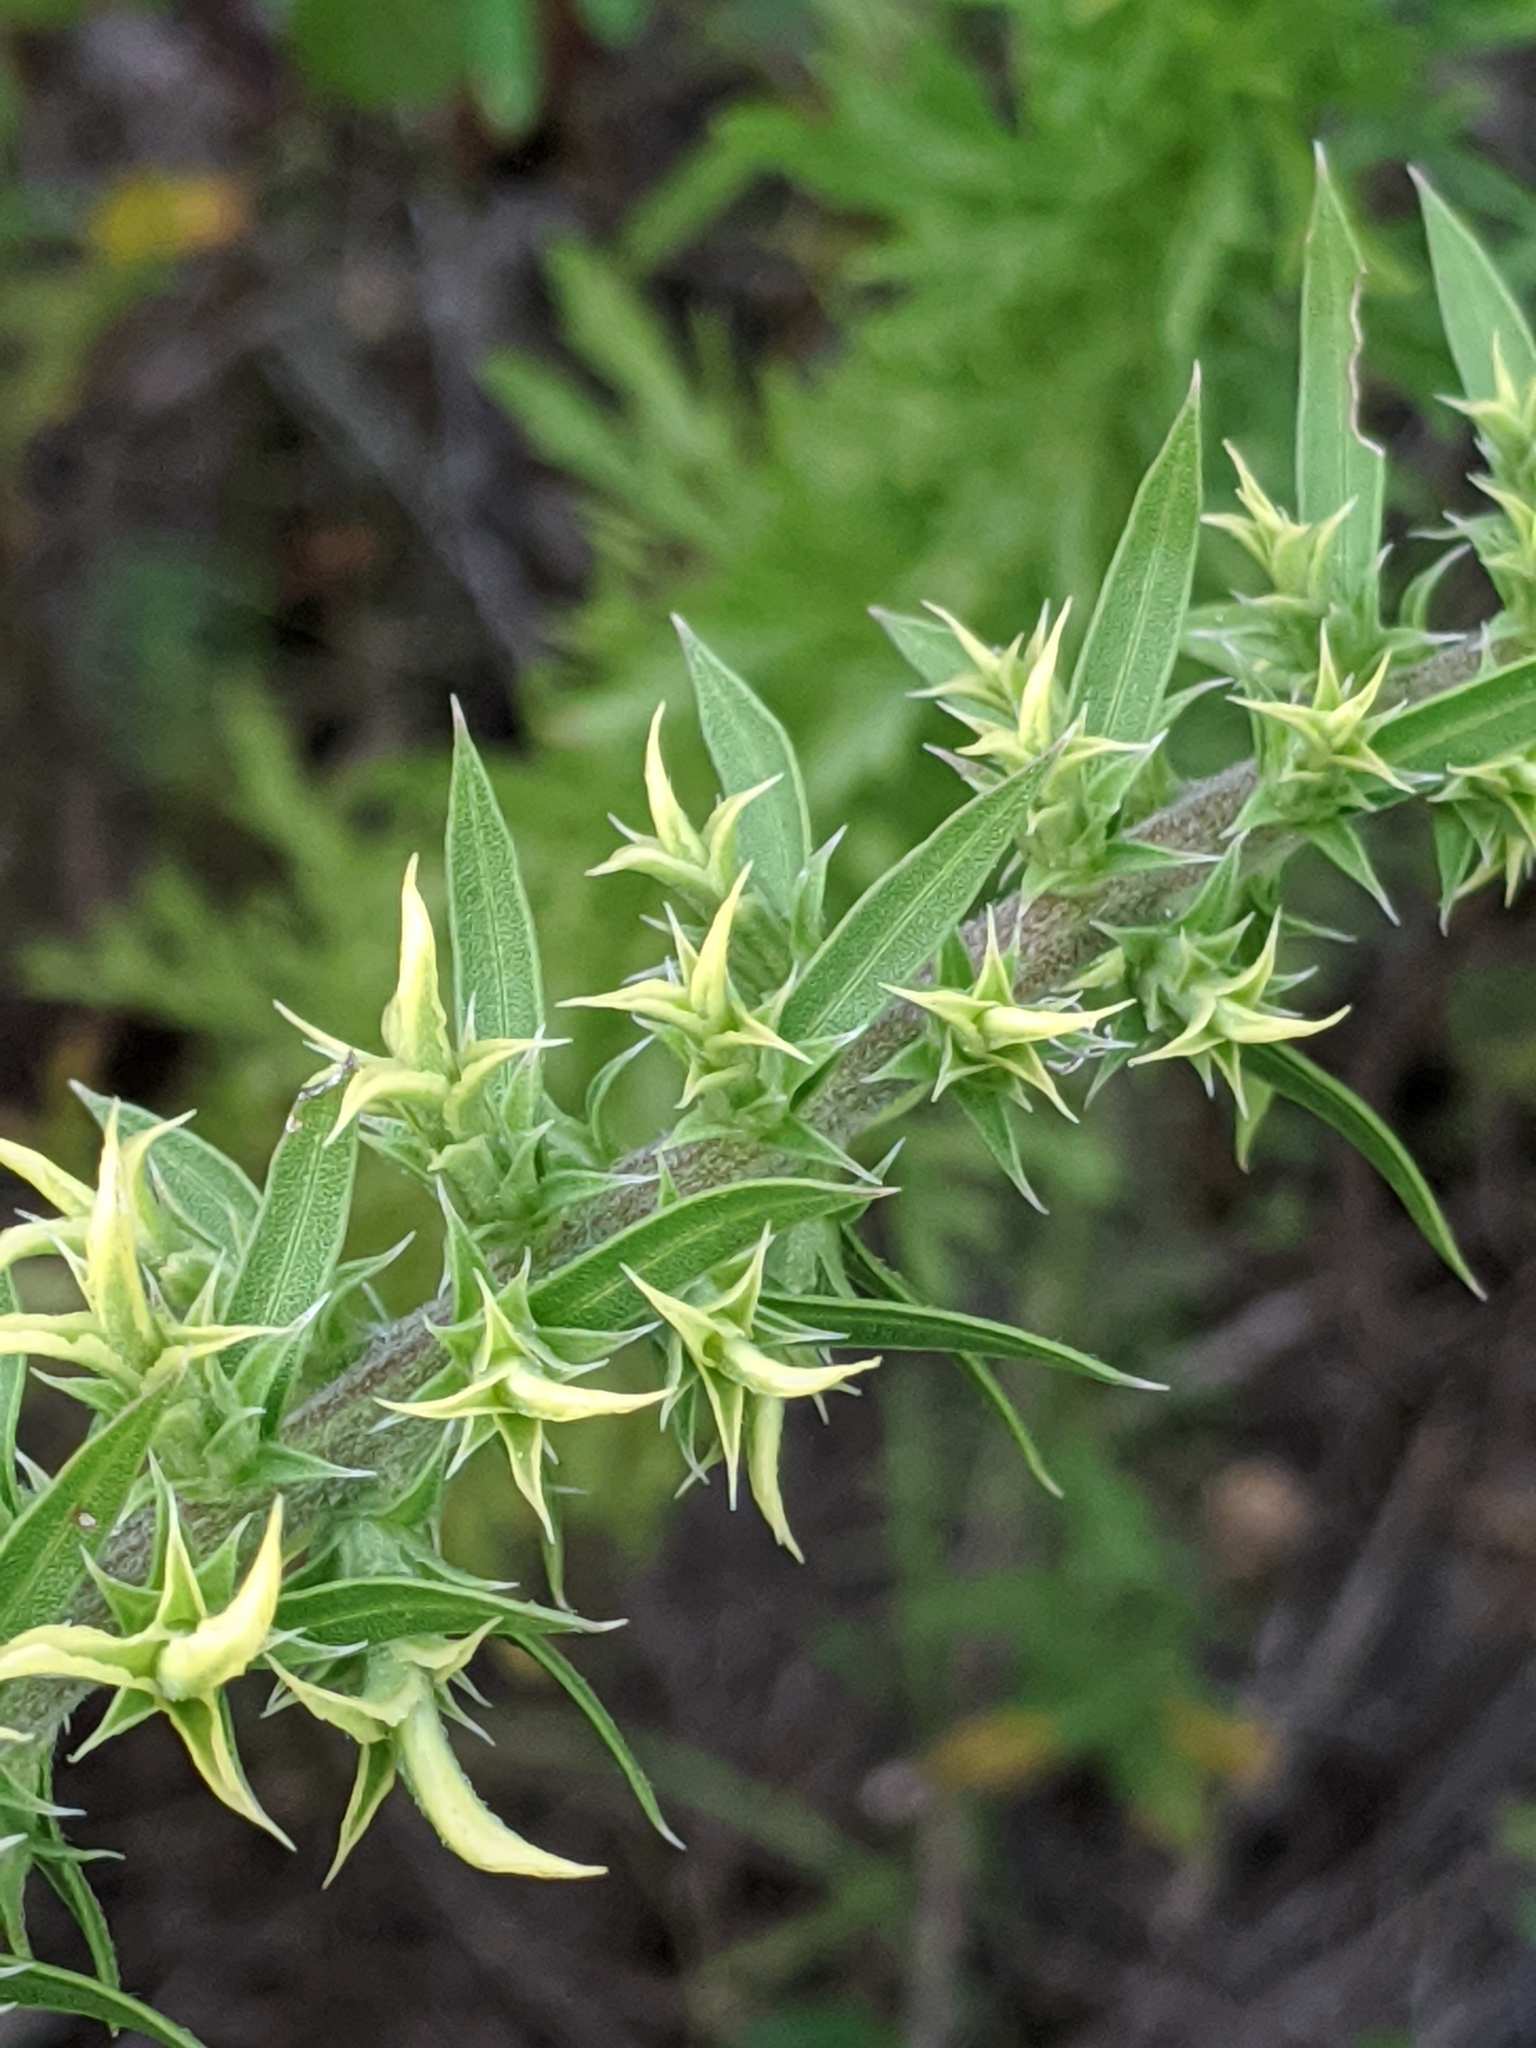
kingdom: Plantae
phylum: Tracheophyta
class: Magnoliopsida
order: Asterales
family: Asteraceae
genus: Liatris
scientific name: Liatris bridgesii
